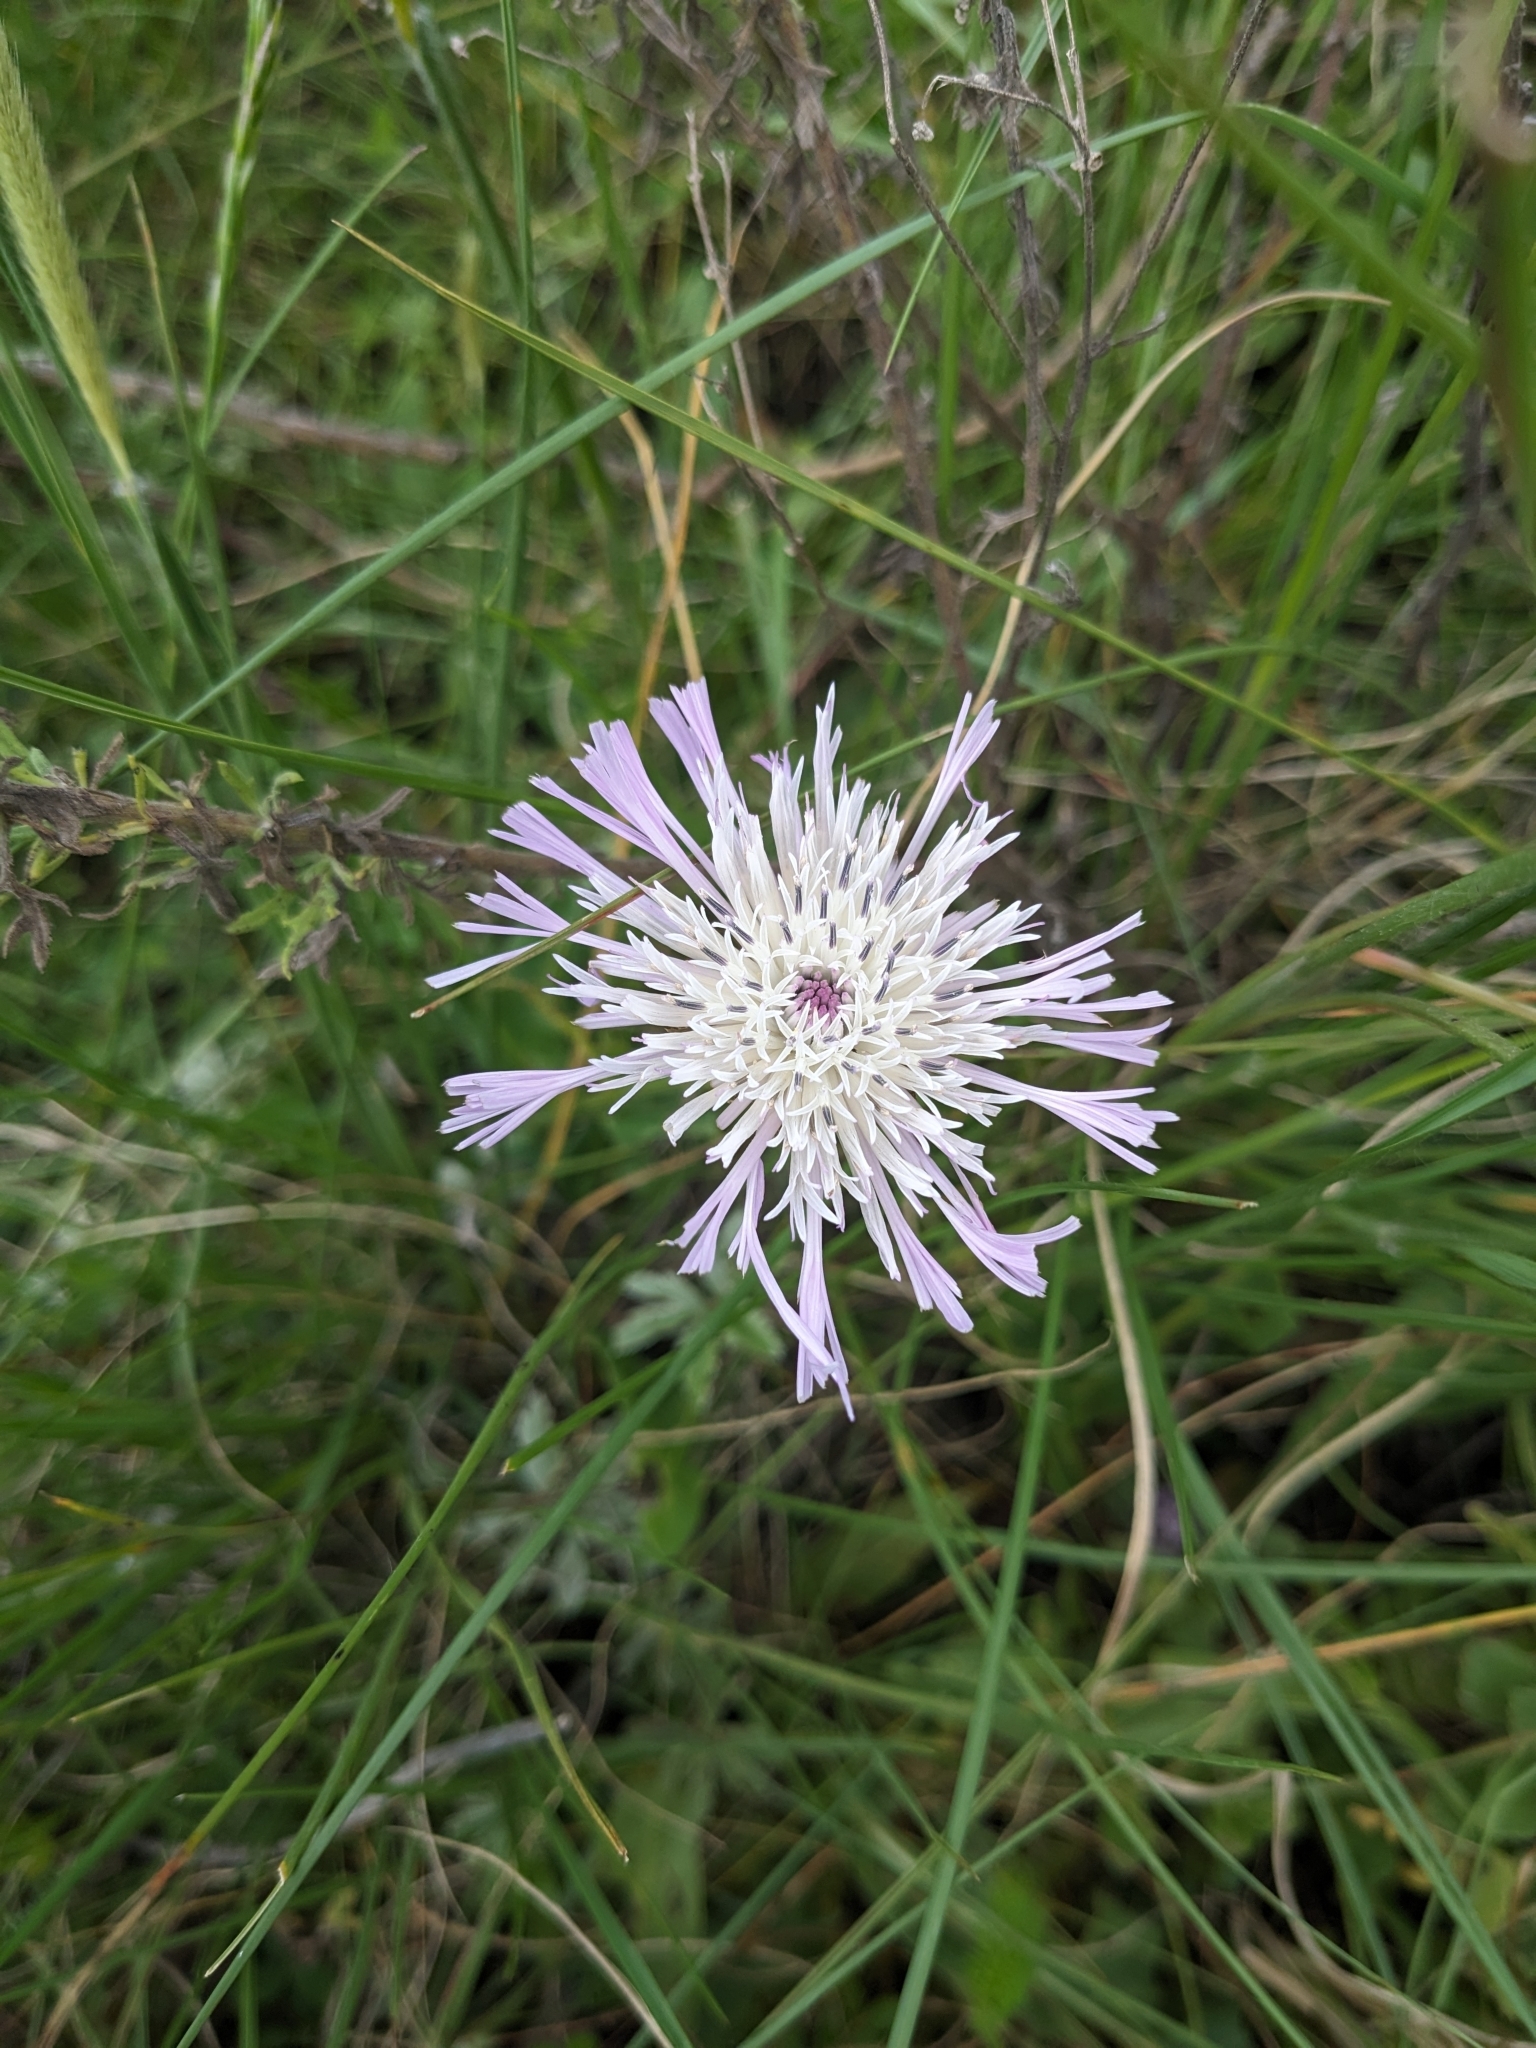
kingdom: Plantae
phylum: Tracheophyta
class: Magnoliopsida
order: Asterales
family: Asteraceae
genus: Plectocephalus
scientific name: Plectocephalus varians
